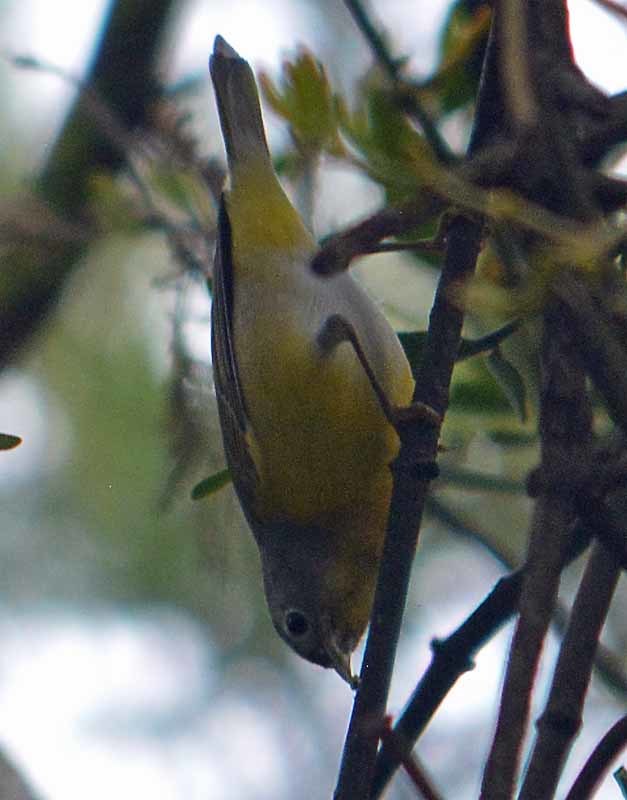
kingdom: Animalia
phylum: Chordata
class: Aves
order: Passeriformes
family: Parulidae
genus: Leiothlypis
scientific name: Leiothlypis ruficapilla
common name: Nashville warbler
